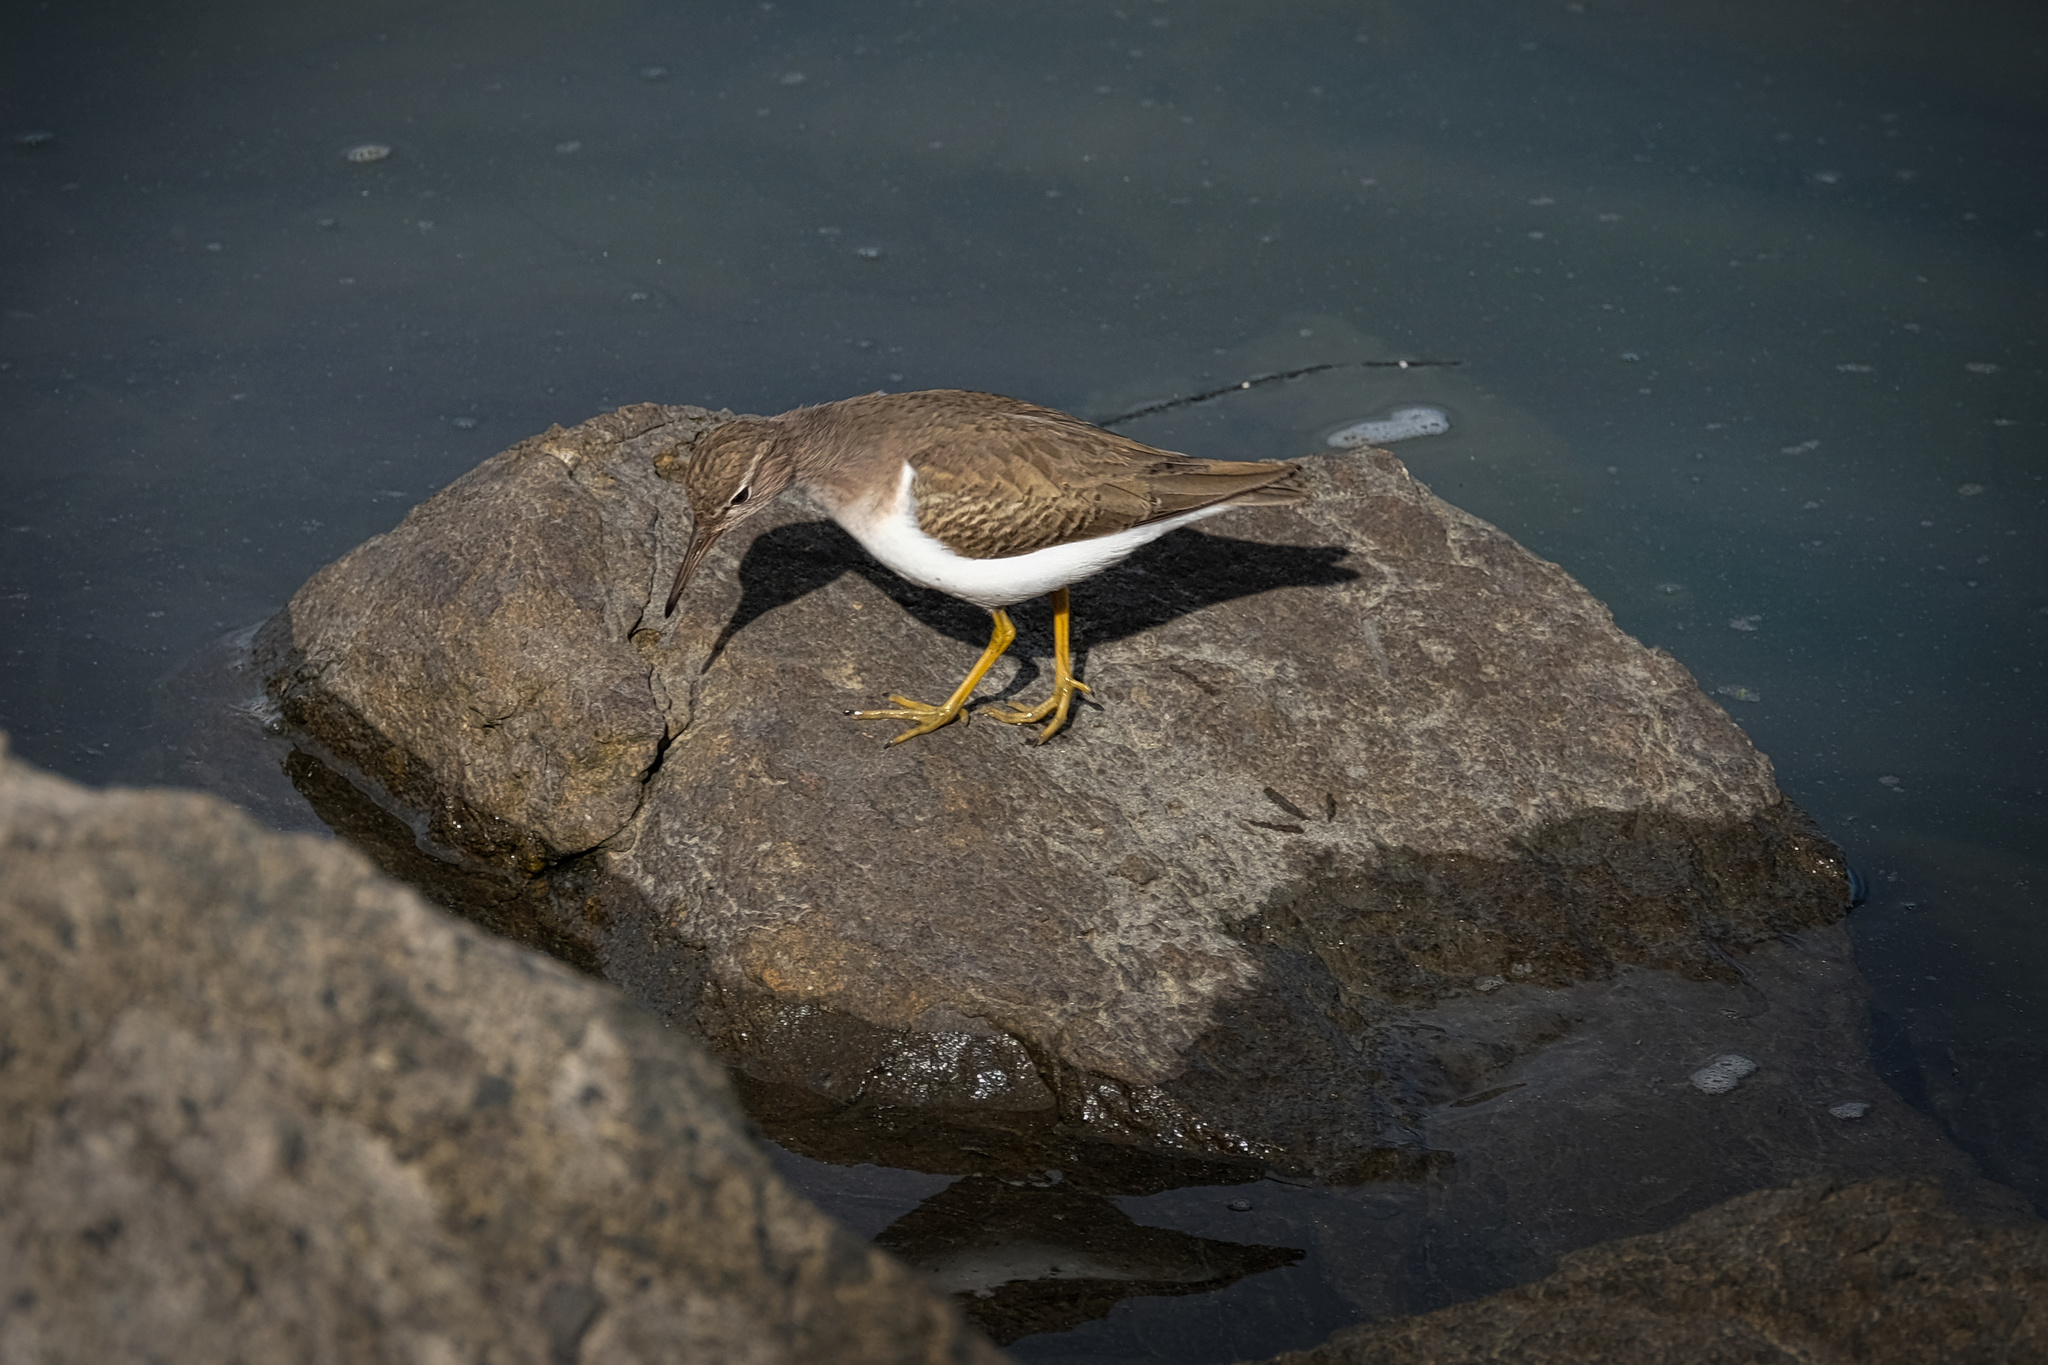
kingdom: Animalia
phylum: Chordata
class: Aves
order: Charadriiformes
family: Scolopacidae
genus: Actitis
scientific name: Actitis macularius
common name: Spotted sandpiper
